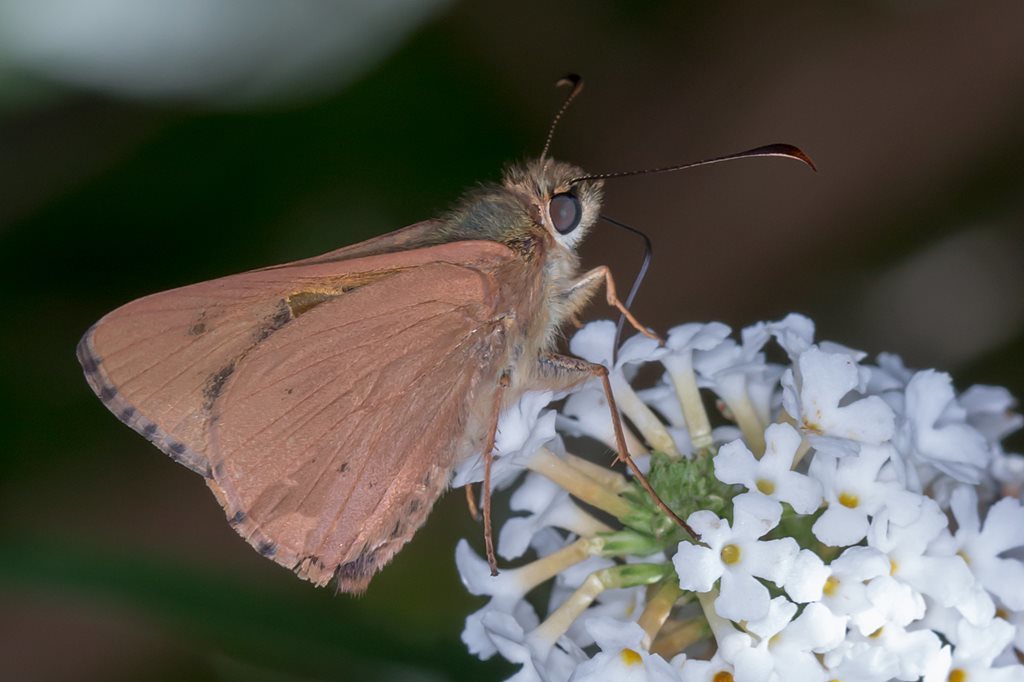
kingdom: Animalia
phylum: Arthropoda
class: Insecta
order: Lepidoptera
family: Hesperiidae
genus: Hesperilla
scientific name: Hesperilla idothea
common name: Flame sedge-skipper
